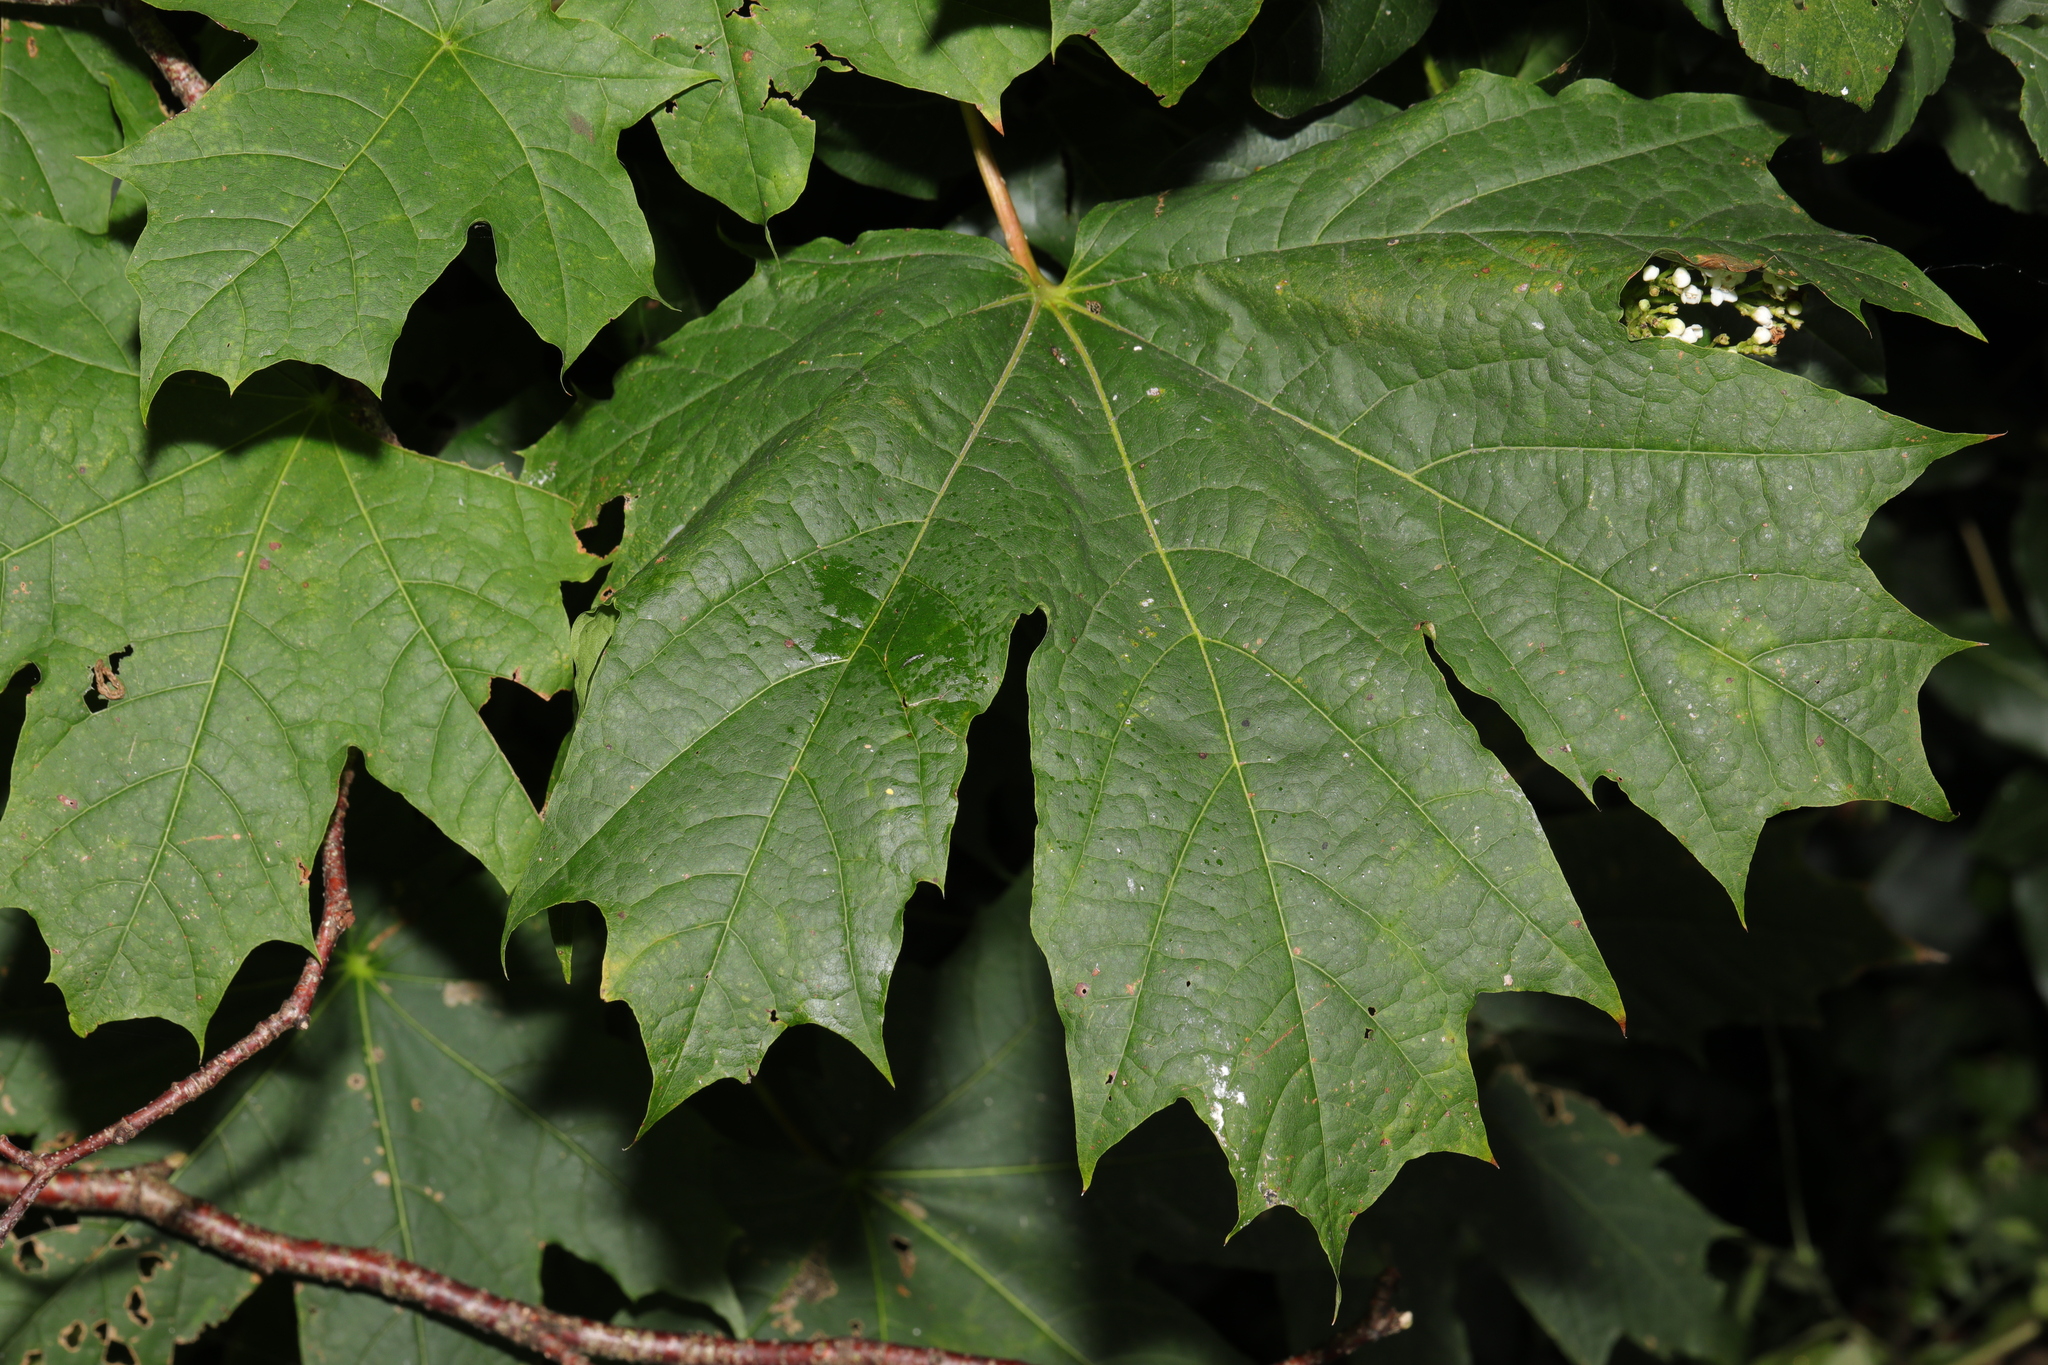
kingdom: Plantae
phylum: Tracheophyta
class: Magnoliopsida
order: Sapindales
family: Sapindaceae
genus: Acer
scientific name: Acer platanoides
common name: Norway maple
